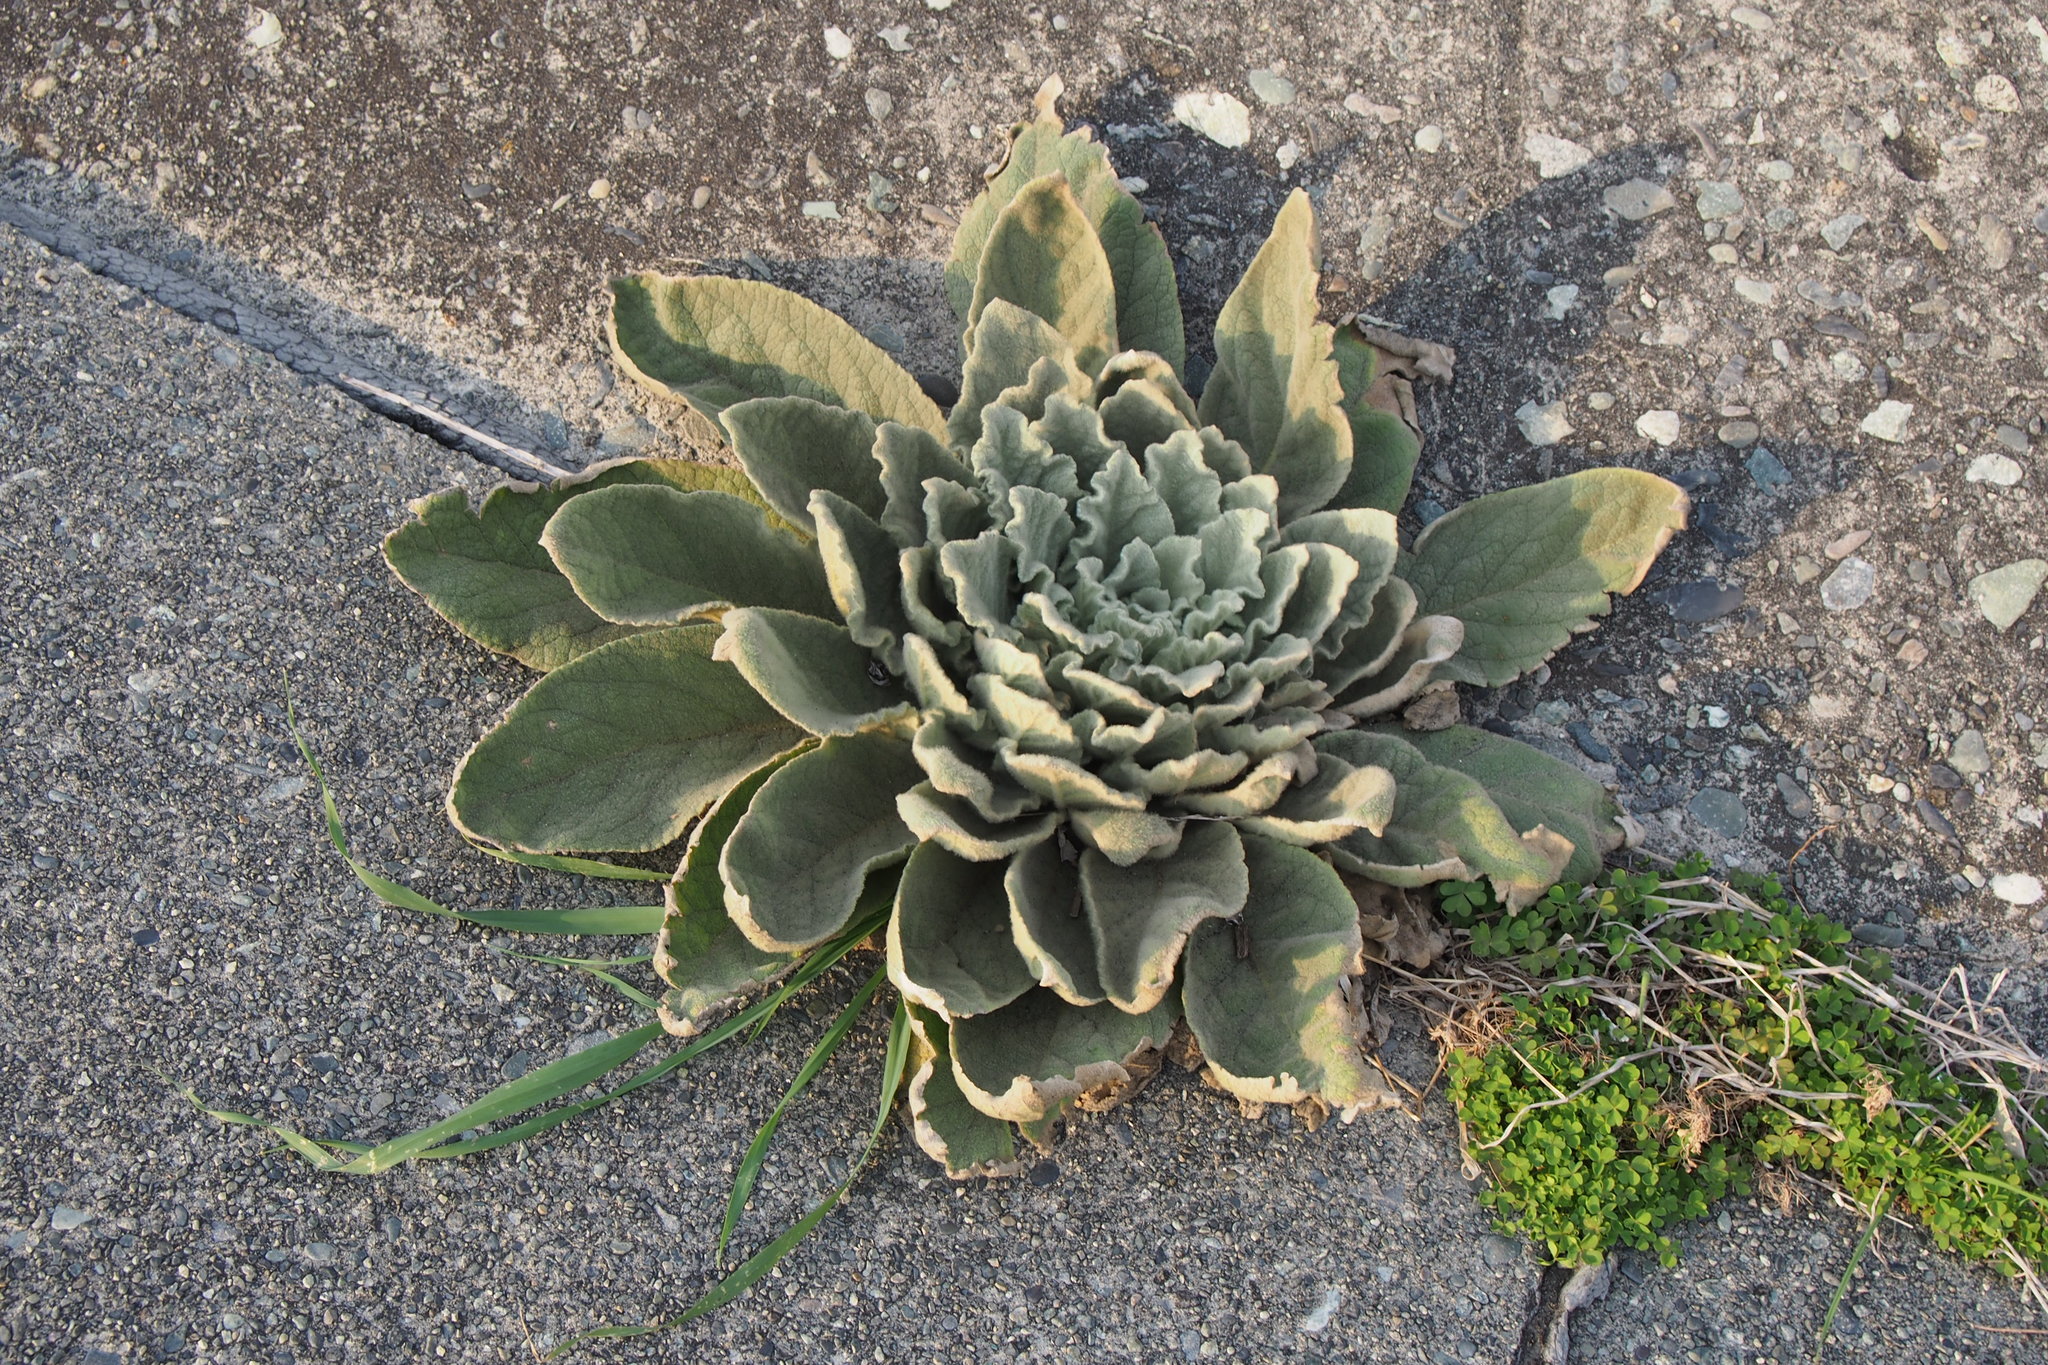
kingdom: Plantae
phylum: Tracheophyta
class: Magnoliopsida
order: Lamiales
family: Scrophulariaceae
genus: Verbascum
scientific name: Verbascum thapsus
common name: Common mullein
